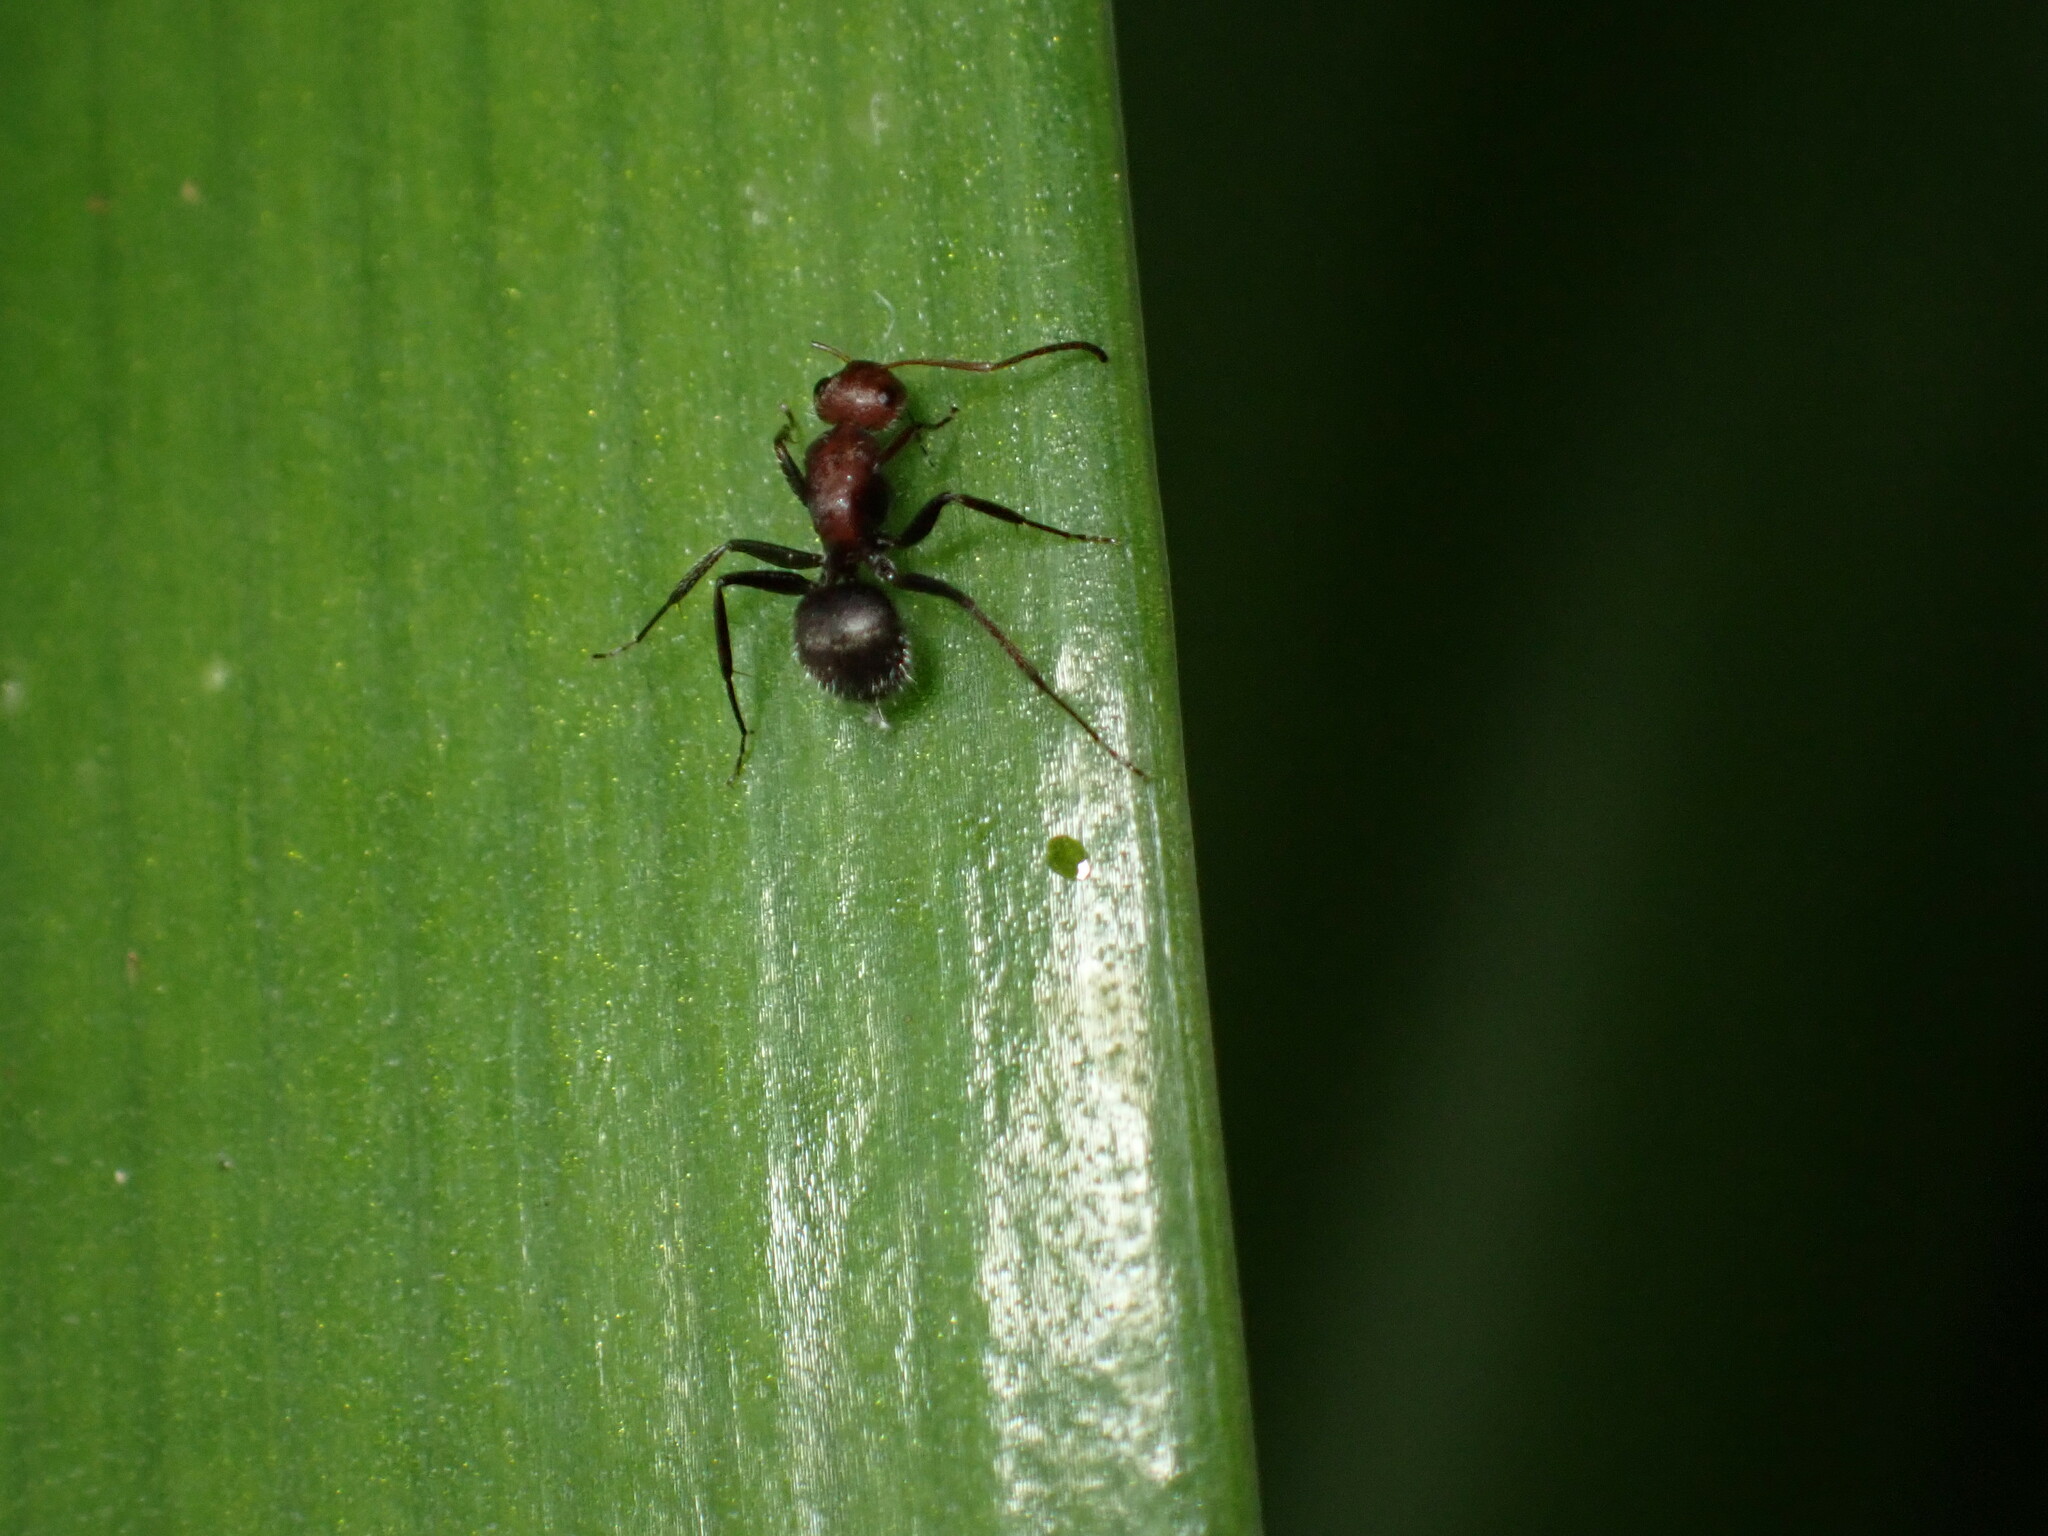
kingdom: Animalia
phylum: Arthropoda
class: Insecta
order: Hymenoptera
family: Formicidae
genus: Camponotus
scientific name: Camponotus planatus
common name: Compact carpenter ant
